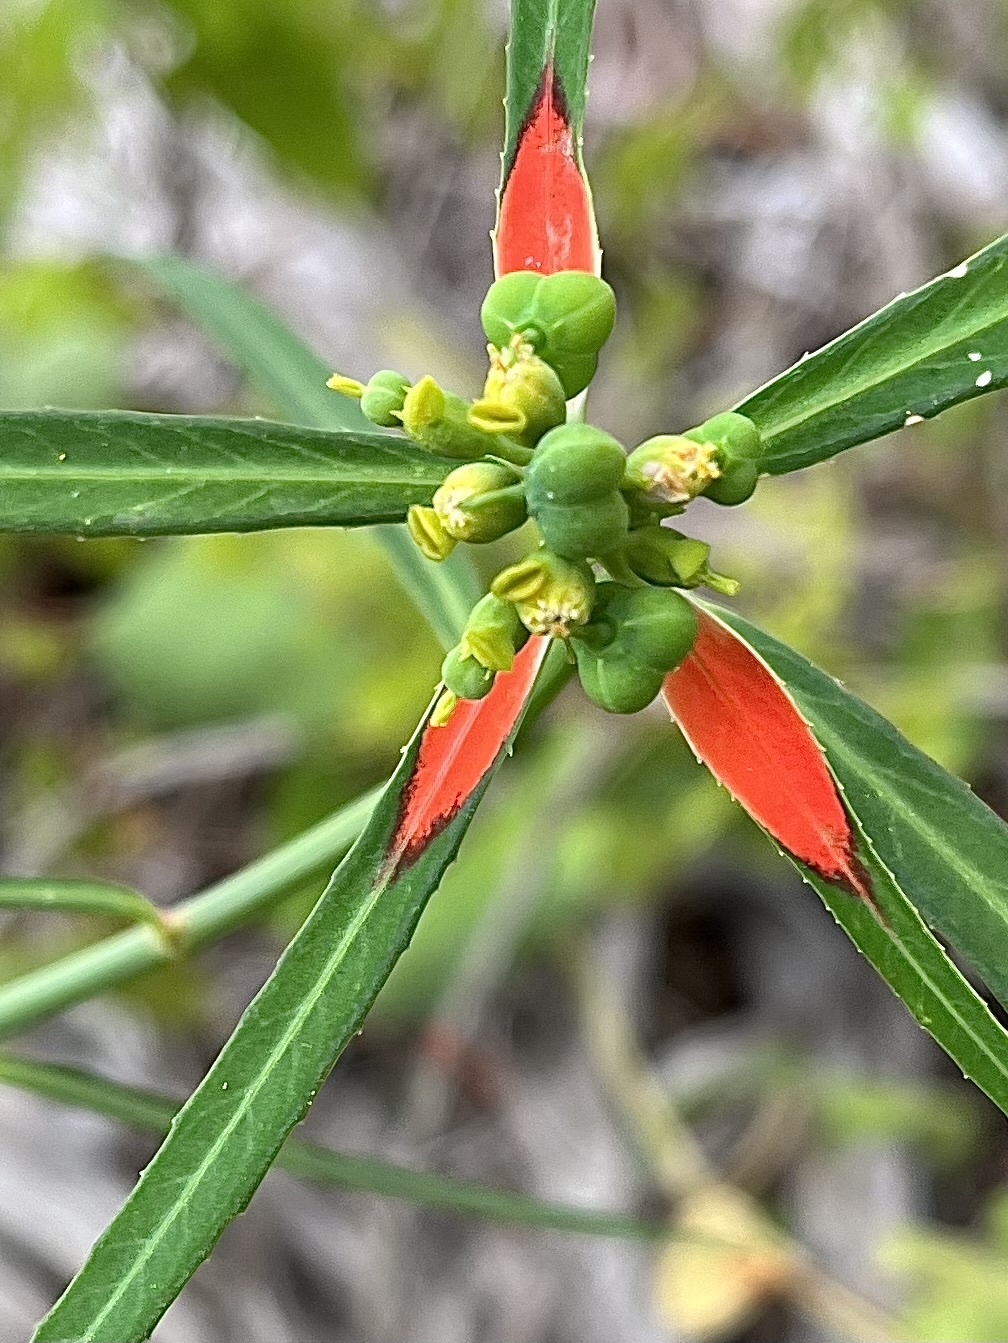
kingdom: Plantae
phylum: Tracheophyta
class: Magnoliopsida
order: Malpighiales
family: Euphorbiaceae
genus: Euphorbia
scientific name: Euphorbia heterophylla
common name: Mexican fireplant
